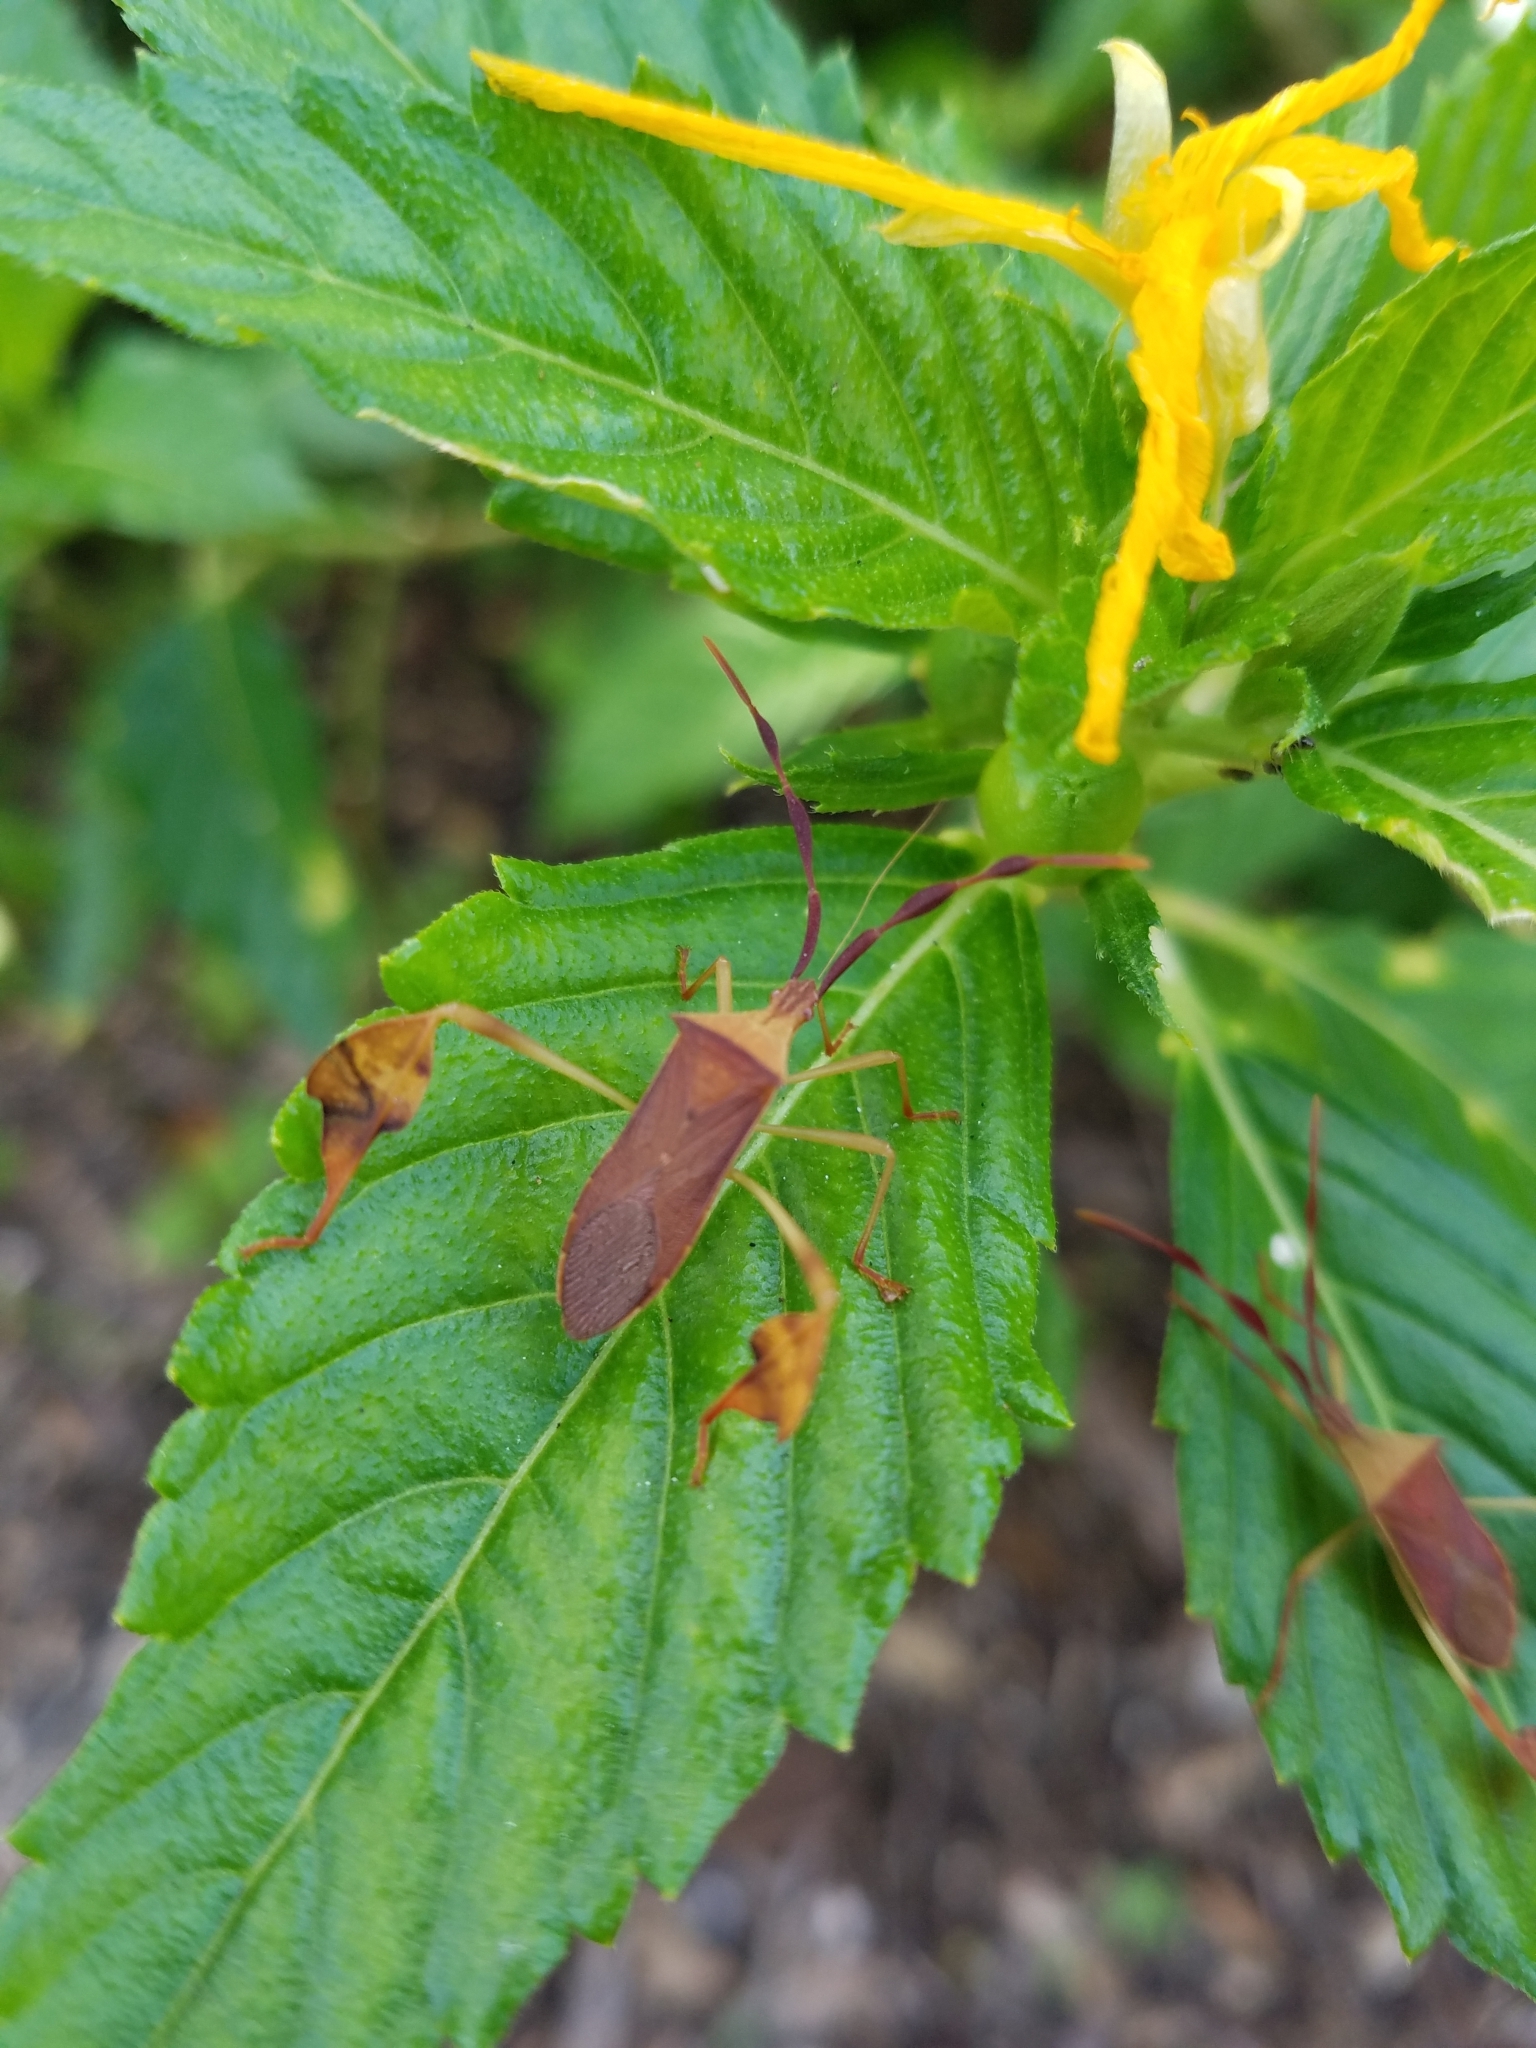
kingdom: Animalia
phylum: Arthropoda
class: Insecta
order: Hemiptera
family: Coreidae
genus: Chondrocera
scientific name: Chondrocera laticornis
